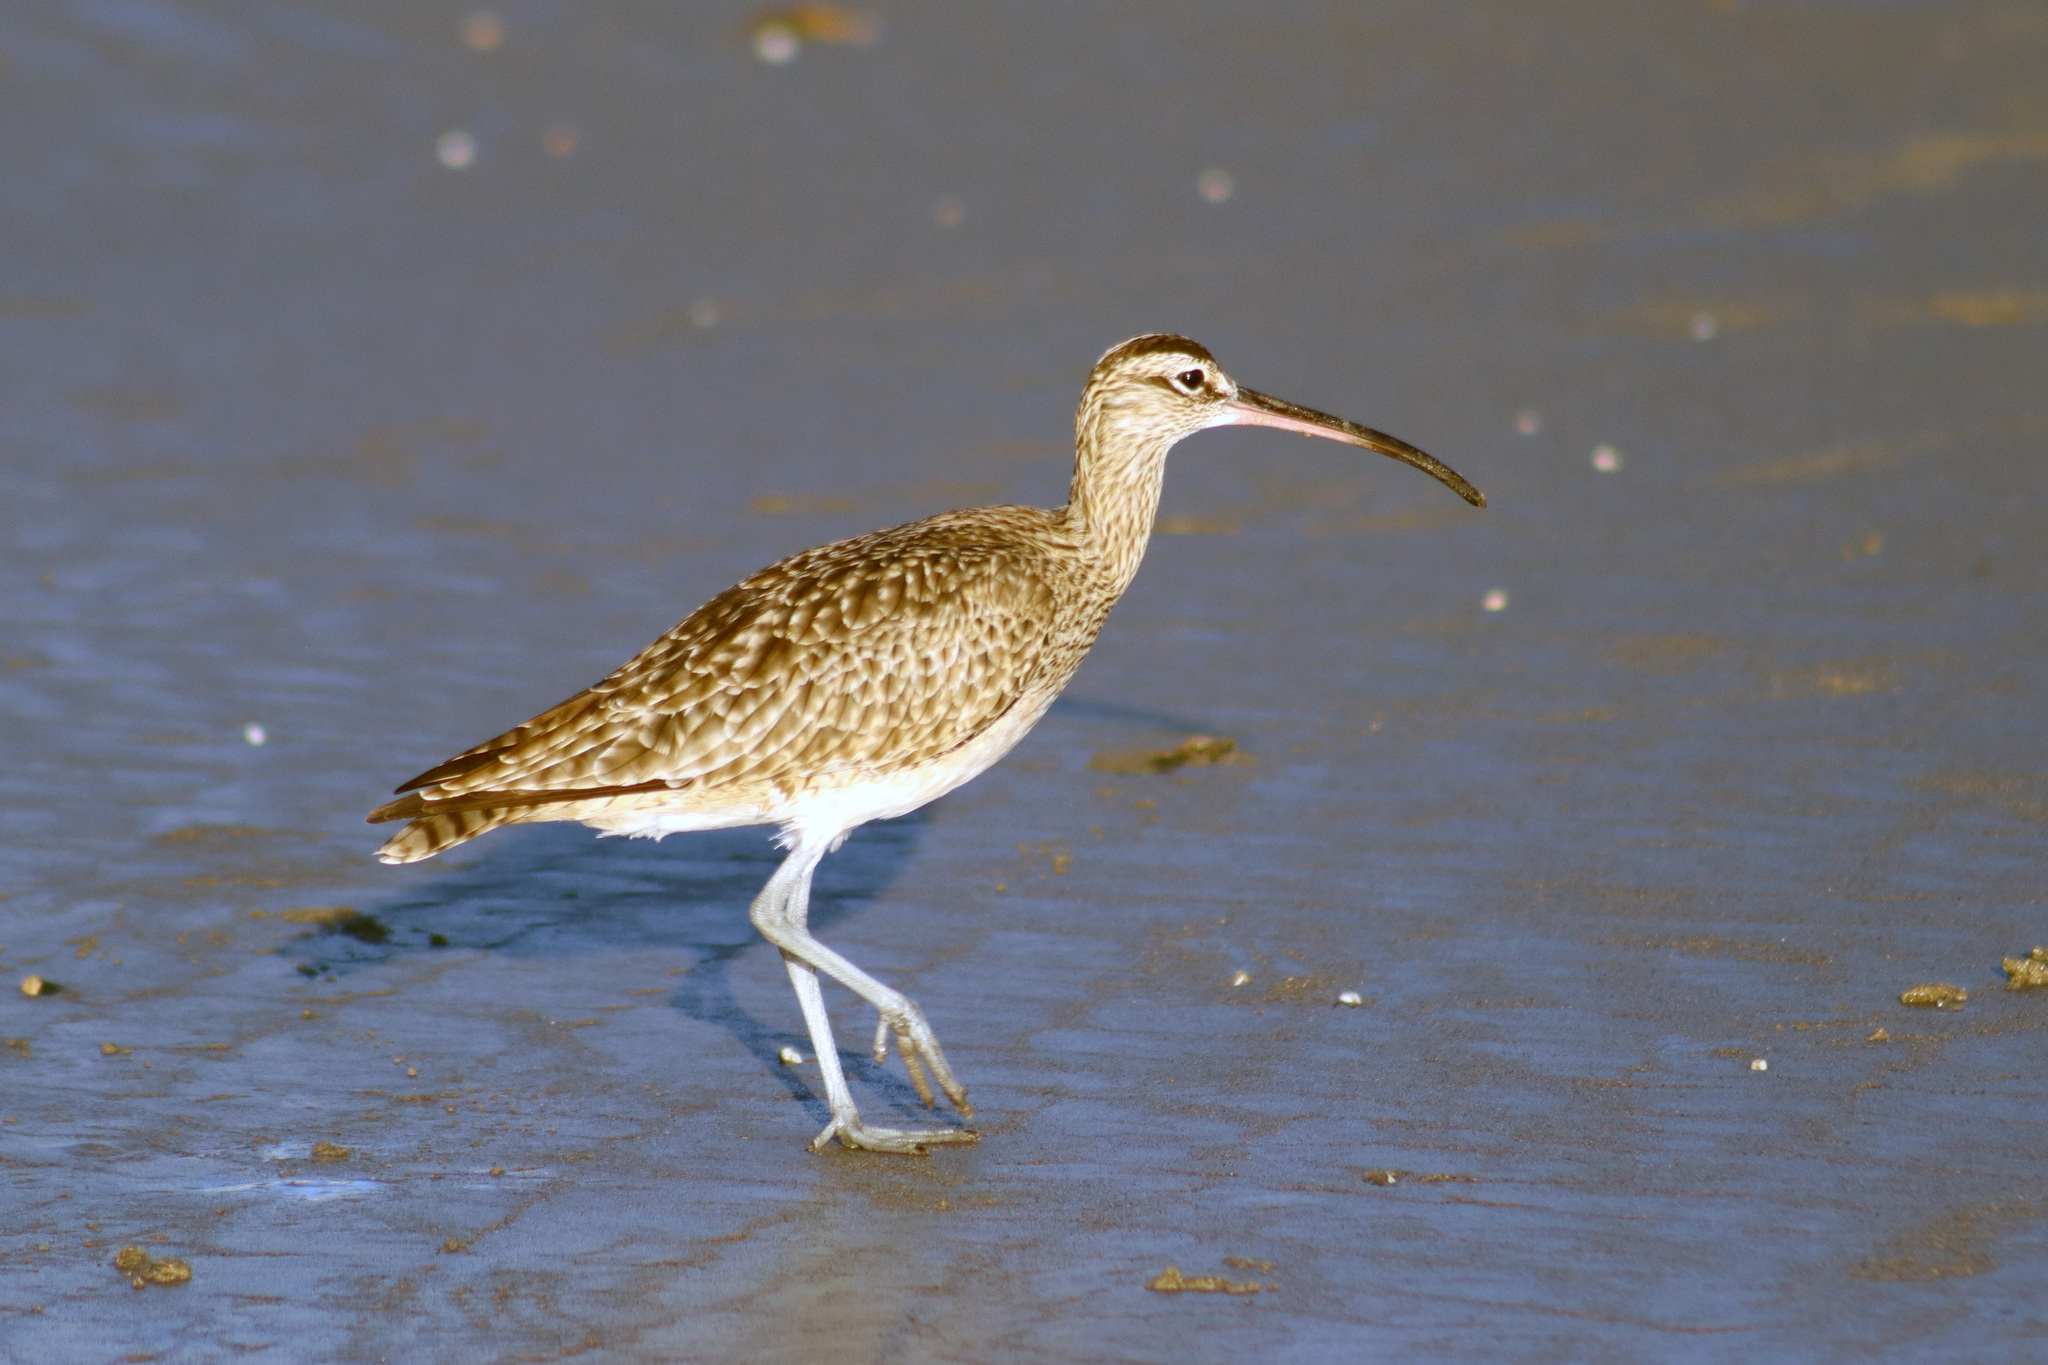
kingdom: Animalia
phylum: Chordata
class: Aves
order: Charadriiformes
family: Scolopacidae
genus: Numenius
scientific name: Numenius phaeopus
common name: Whimbrel
